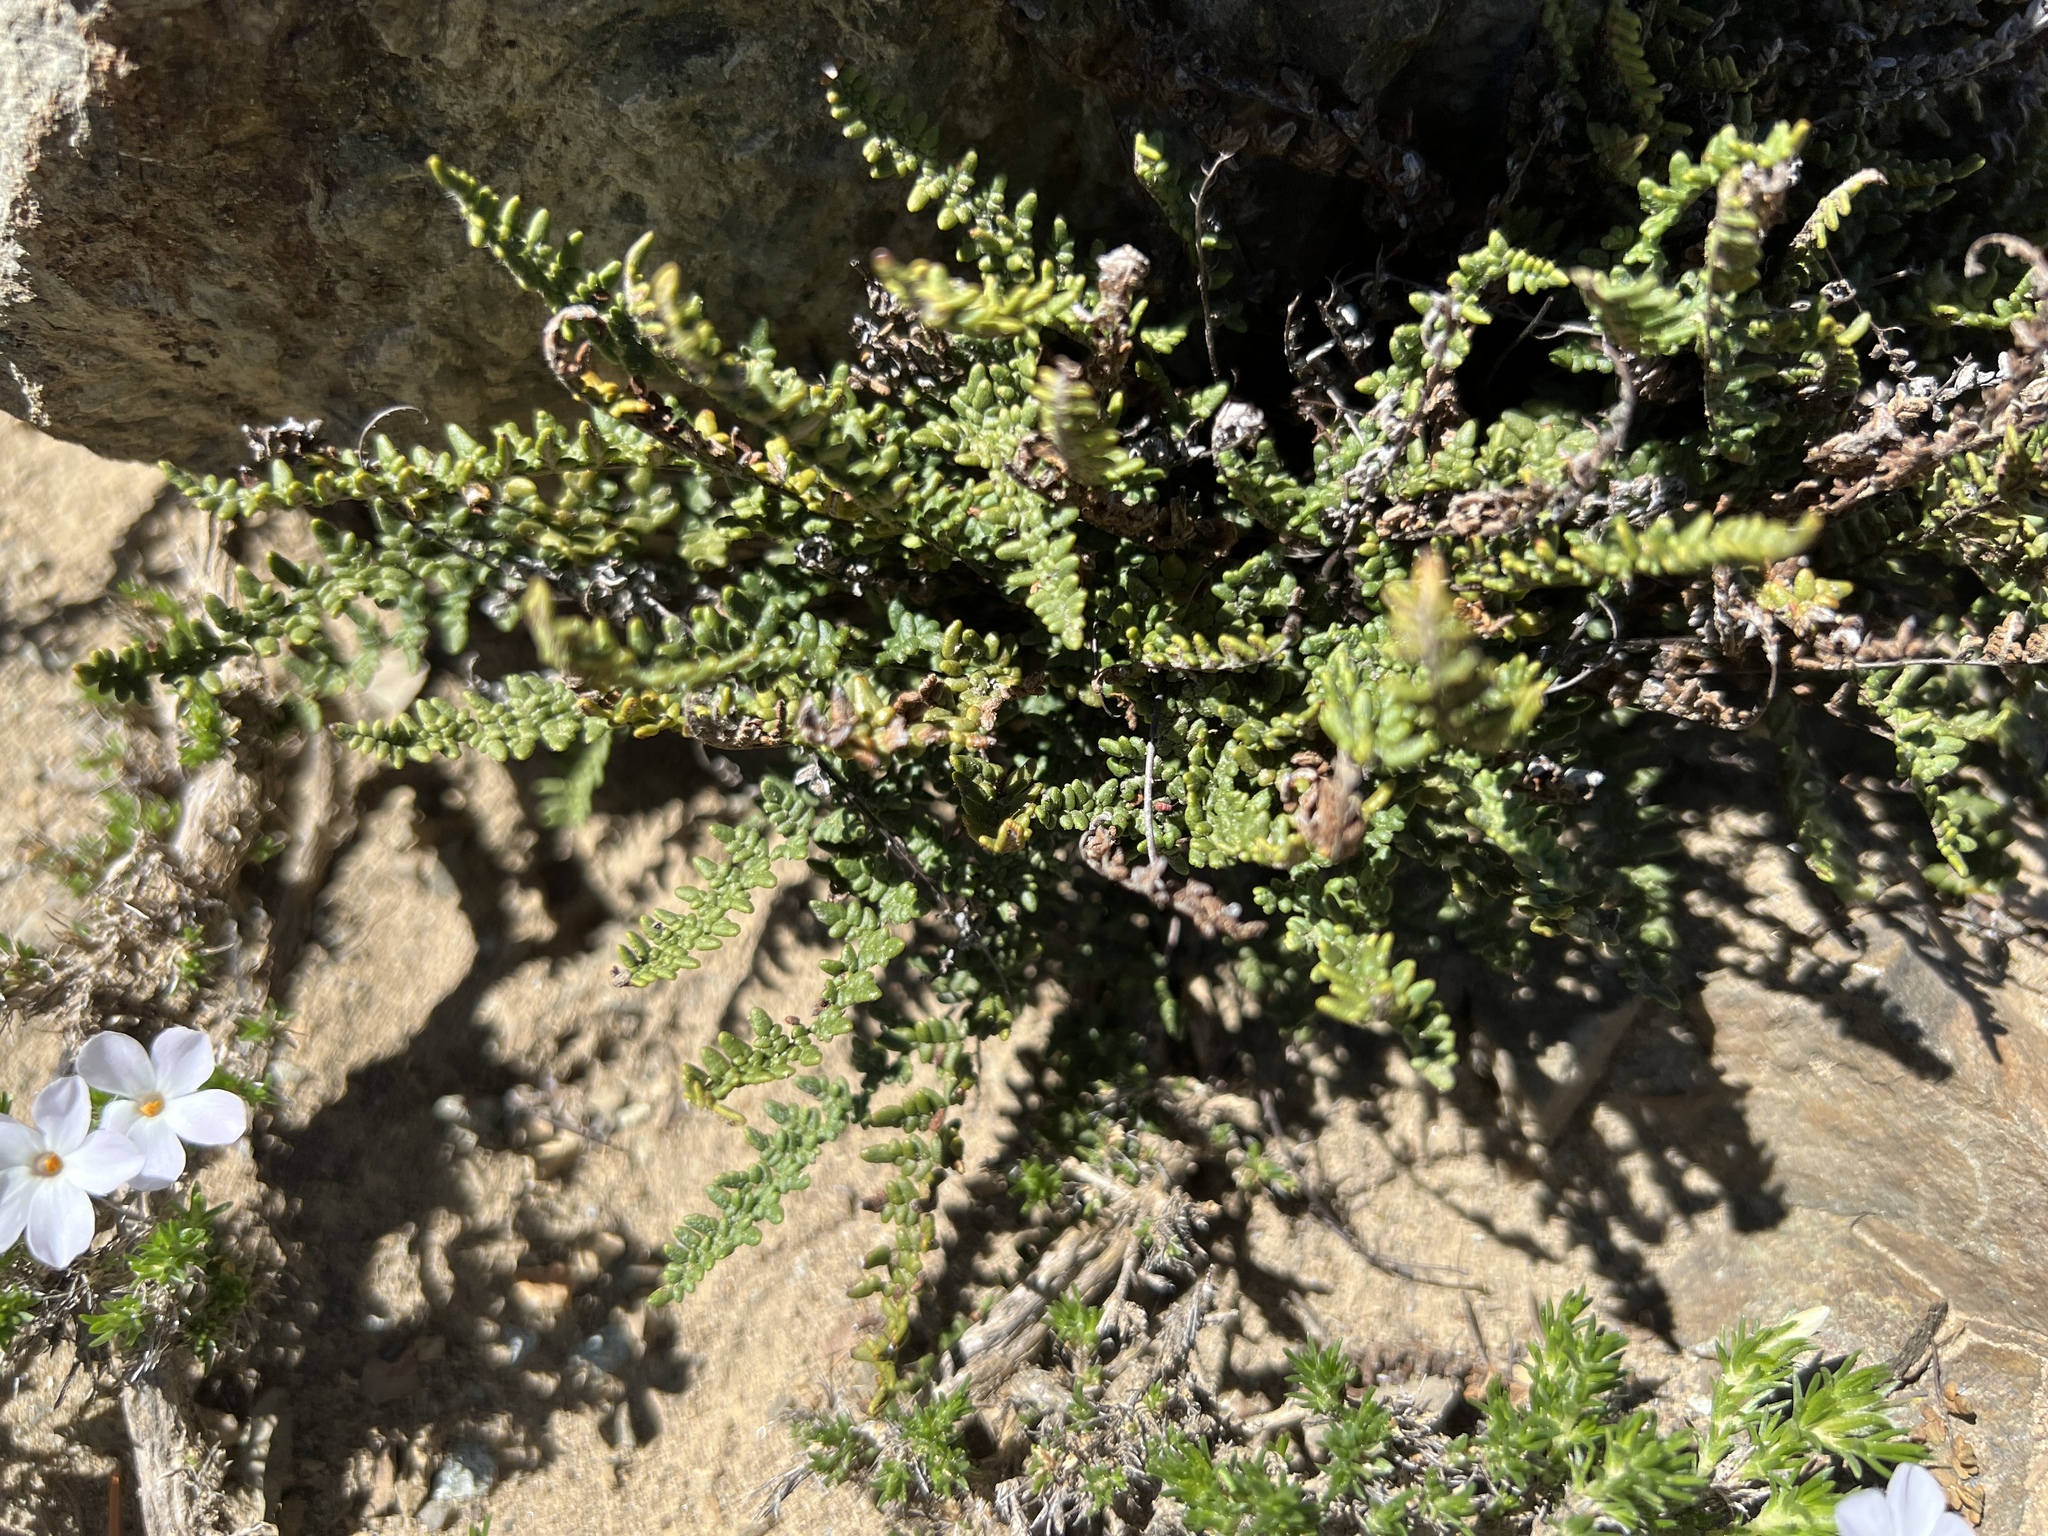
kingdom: Plantae
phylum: Tracheophyta
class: Polypodiopsida
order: Polypodiales
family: Pteridaceae
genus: Myriopteris
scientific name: Myriopteris gracillima
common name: Lace fern
